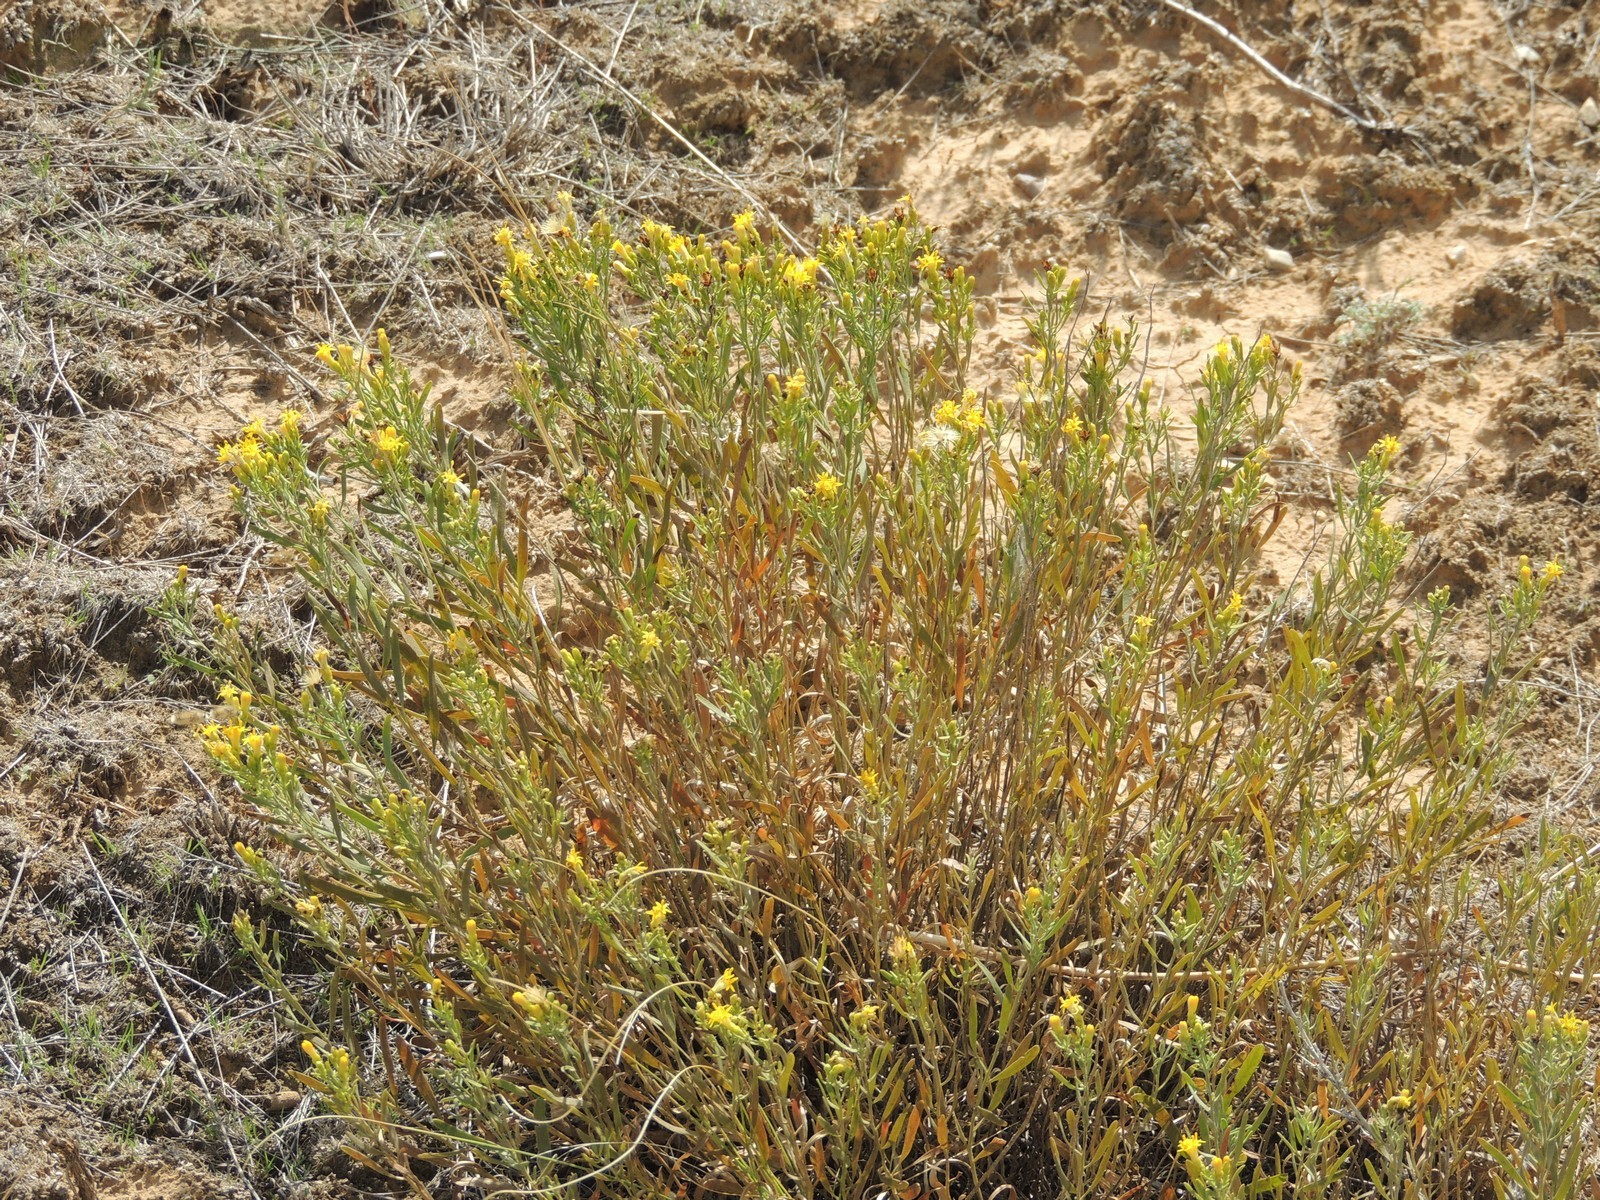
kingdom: Plantae
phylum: Tracheophyta
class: Magnoliopsida
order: Asterales
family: Asteraceae
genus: Galatella
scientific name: Galatella sedifolia
